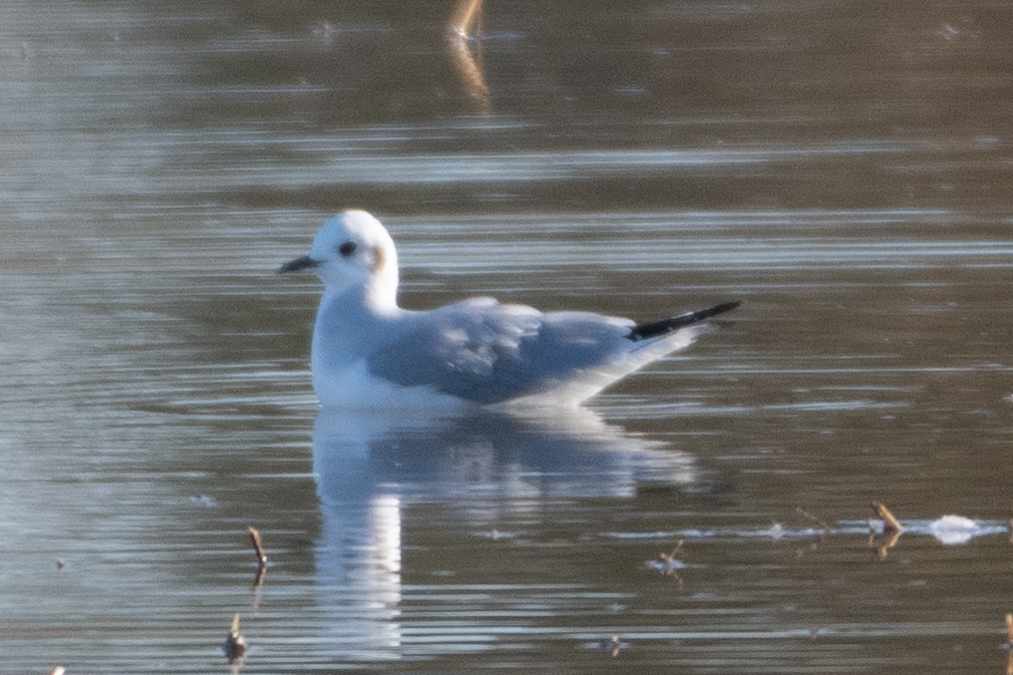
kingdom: Animalia
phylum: Chordata
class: Aves
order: Charadriiformes
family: Laridae
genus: Chroicocephalus
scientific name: Chroicocephalus philadelphia
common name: Bonaparte's gull
